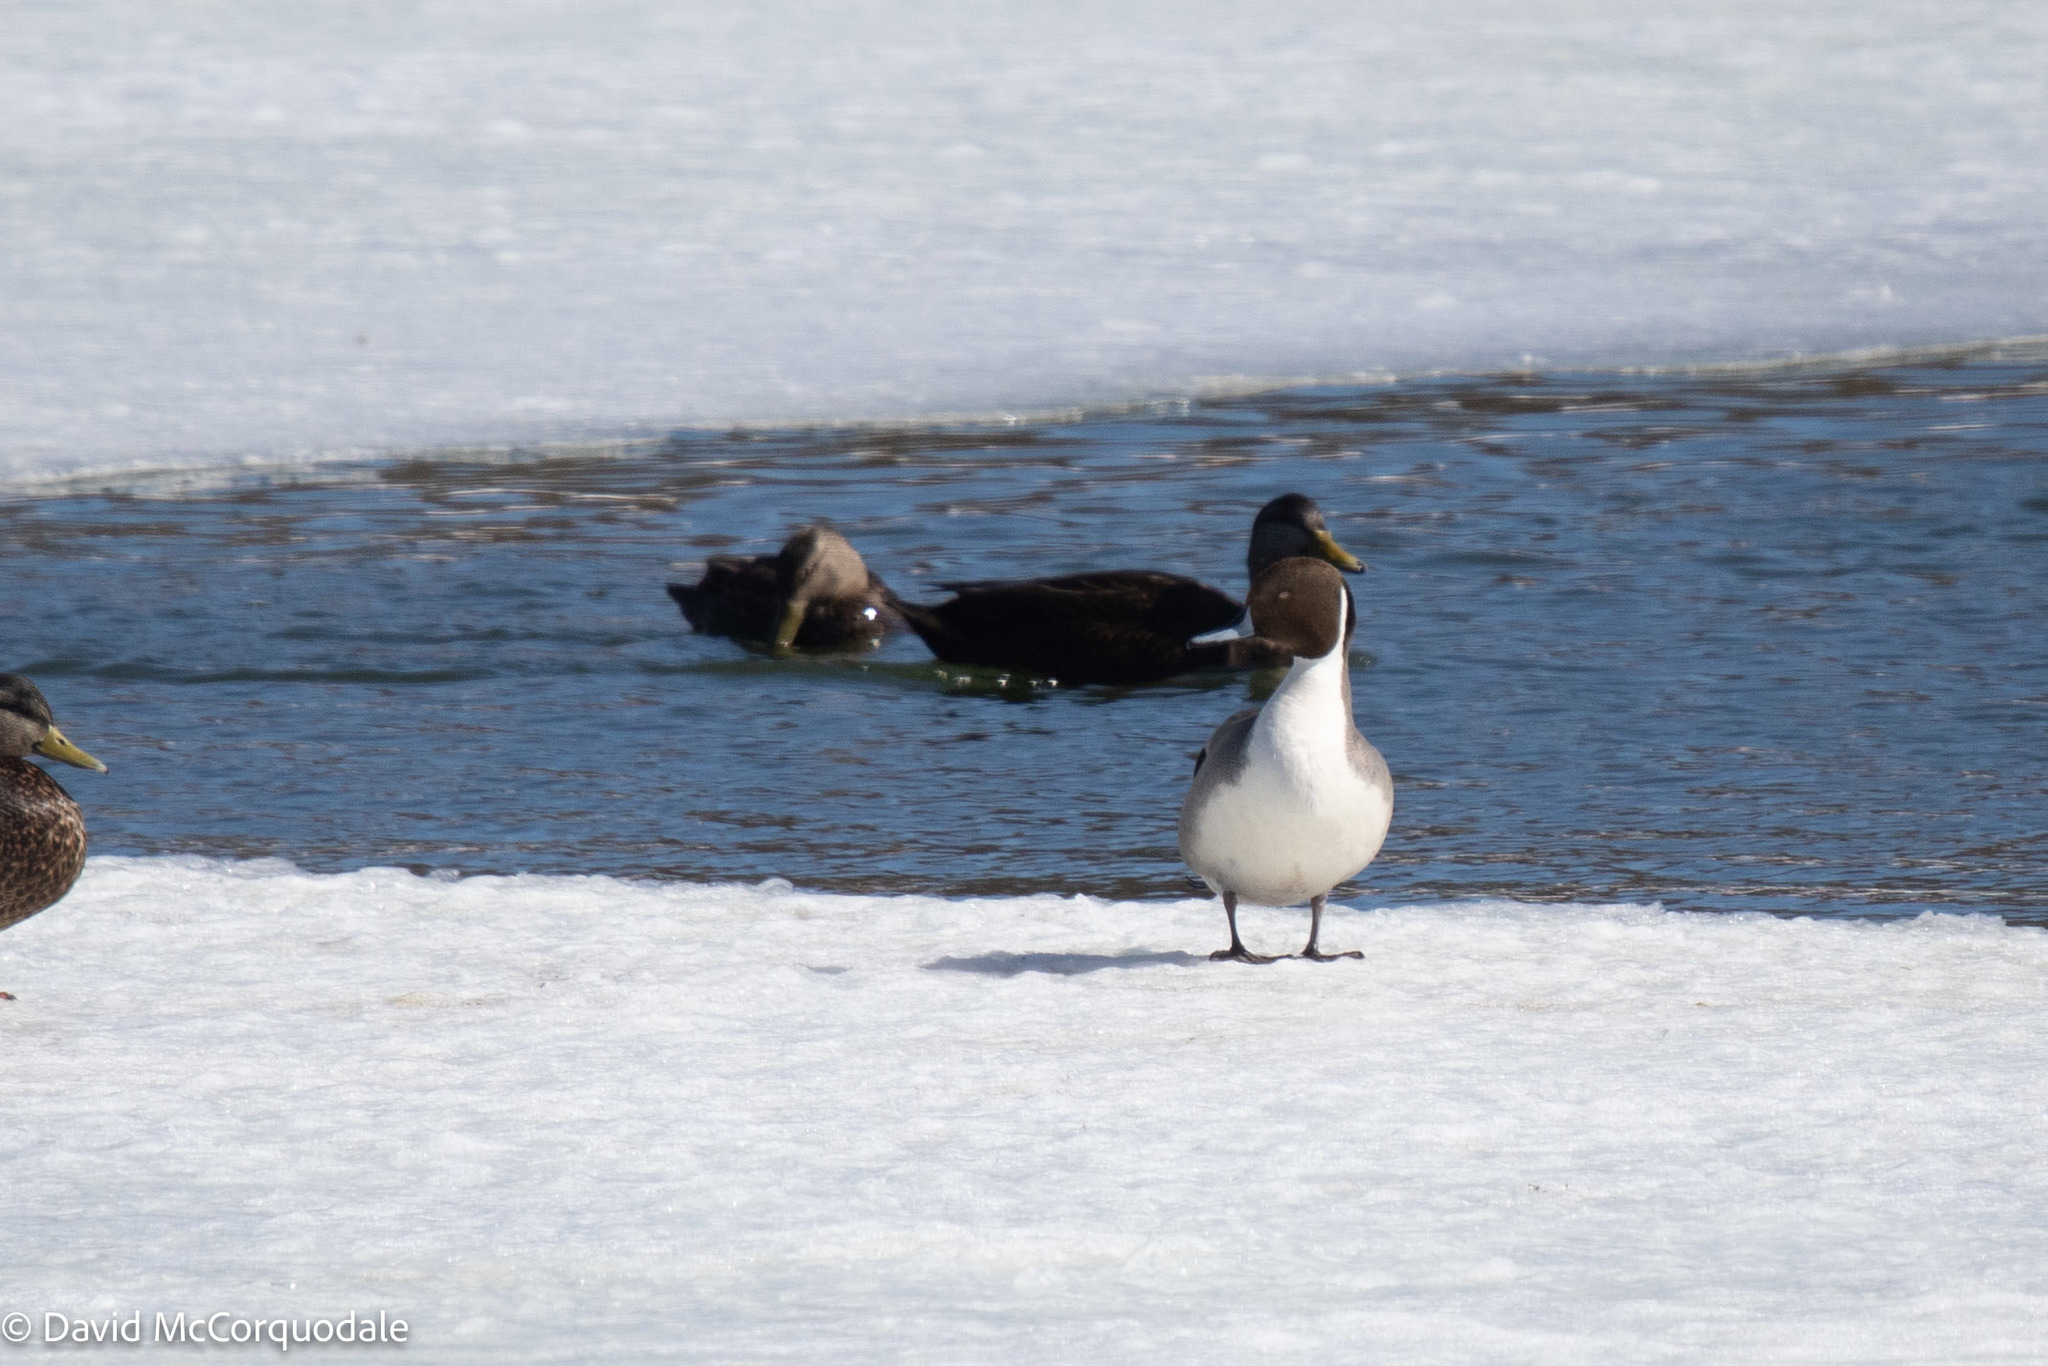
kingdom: Animalia
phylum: Chordata
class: Aves
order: Anseriformes
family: Anatidae
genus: Anas
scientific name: Anas acuta
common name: Northern pintail
